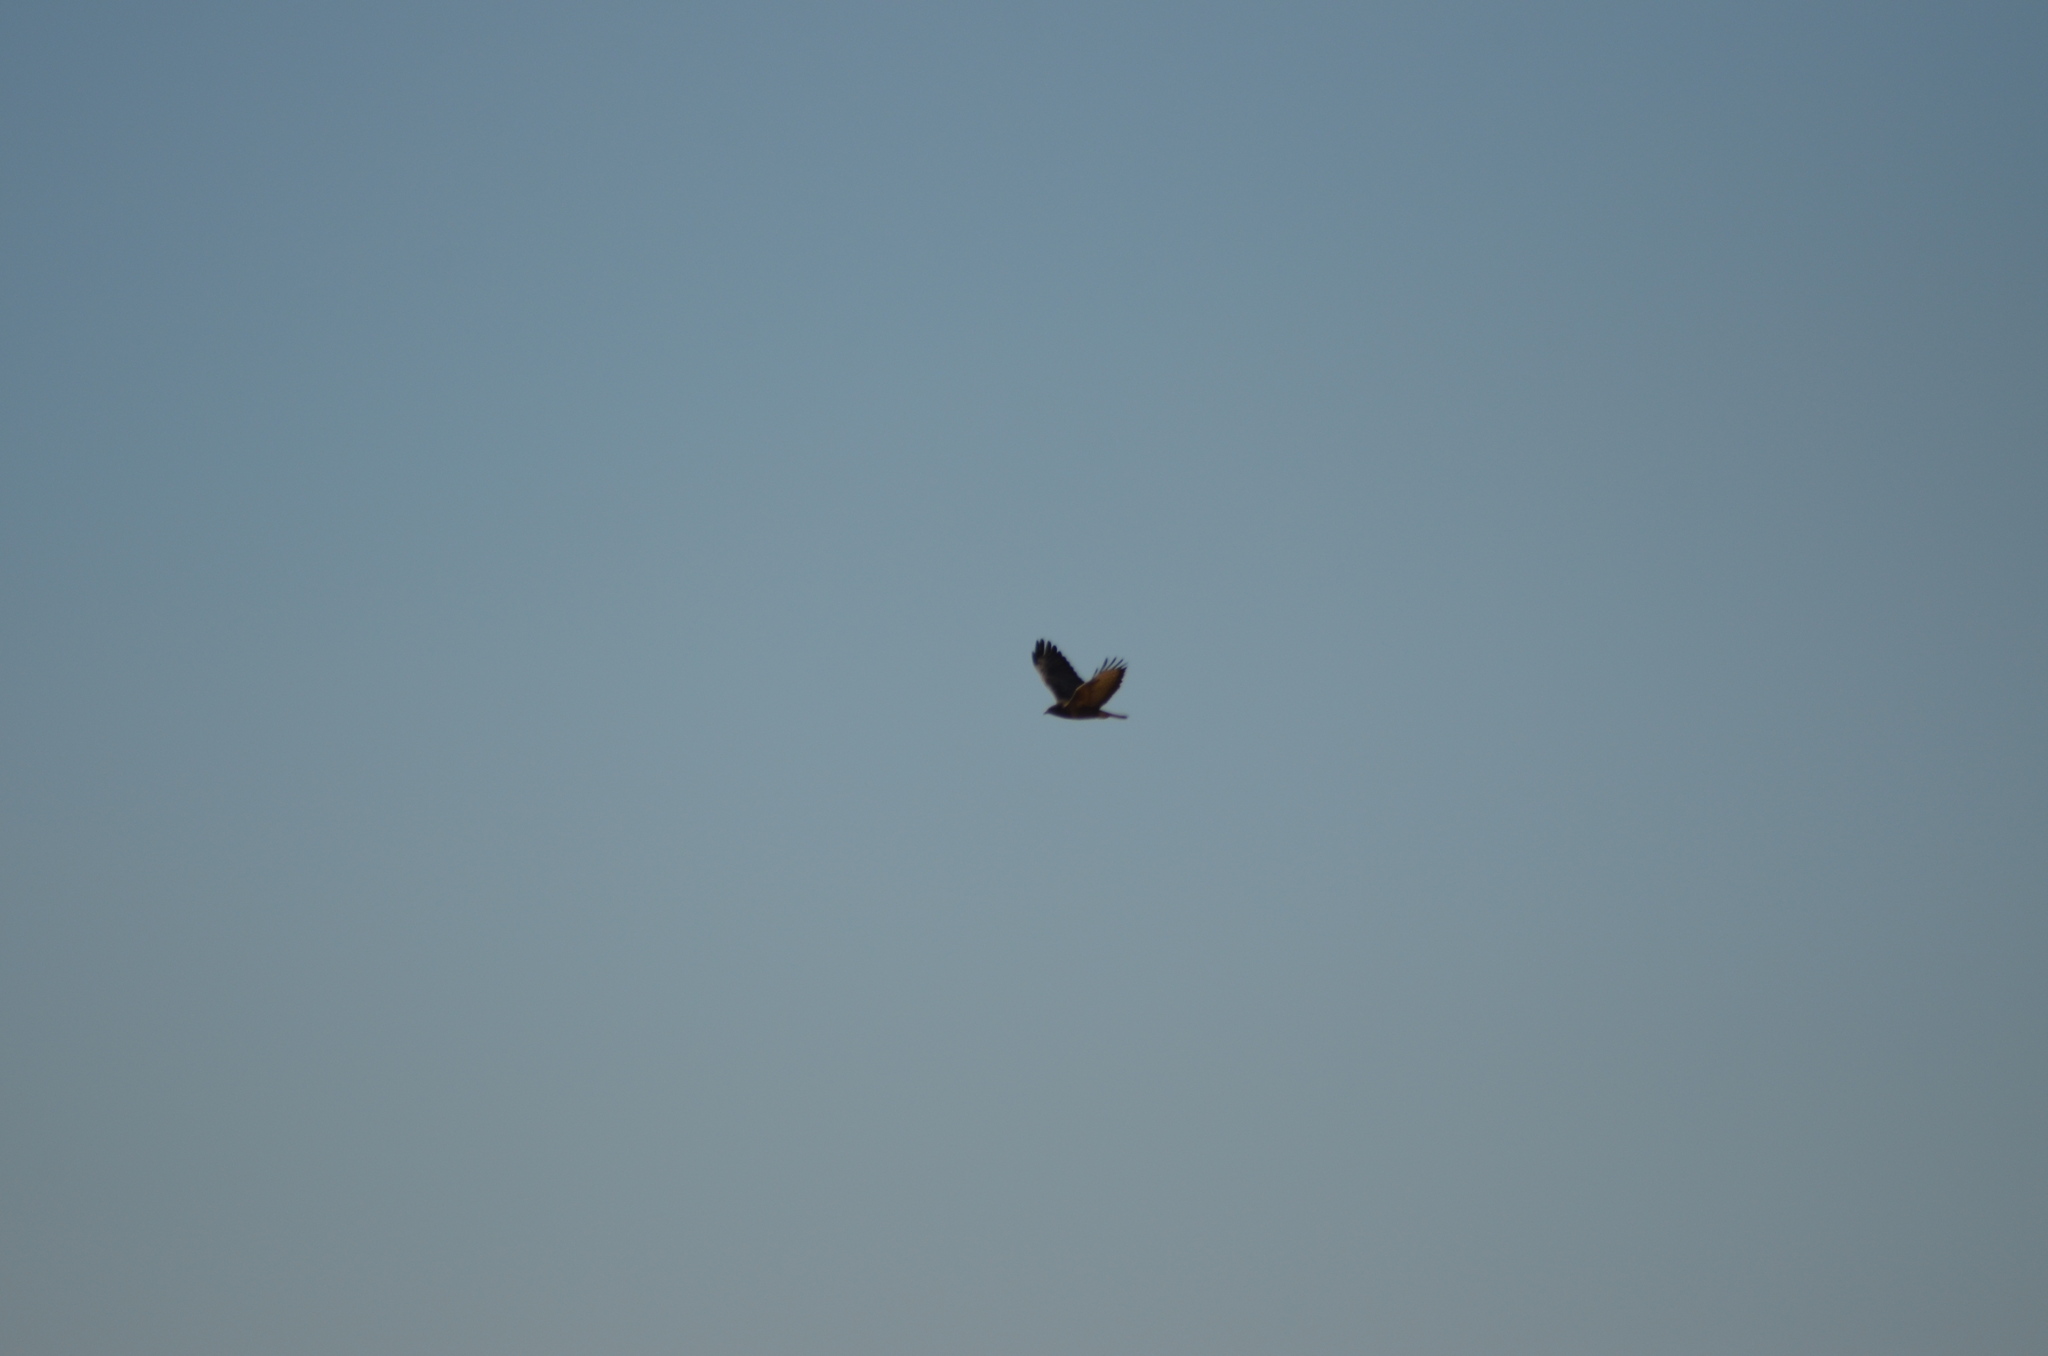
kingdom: Animalia
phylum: Chordata
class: Aves
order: Accipitriformes
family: Accipitridae
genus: Buteo
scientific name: Buteo buteo
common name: Common buzzard
